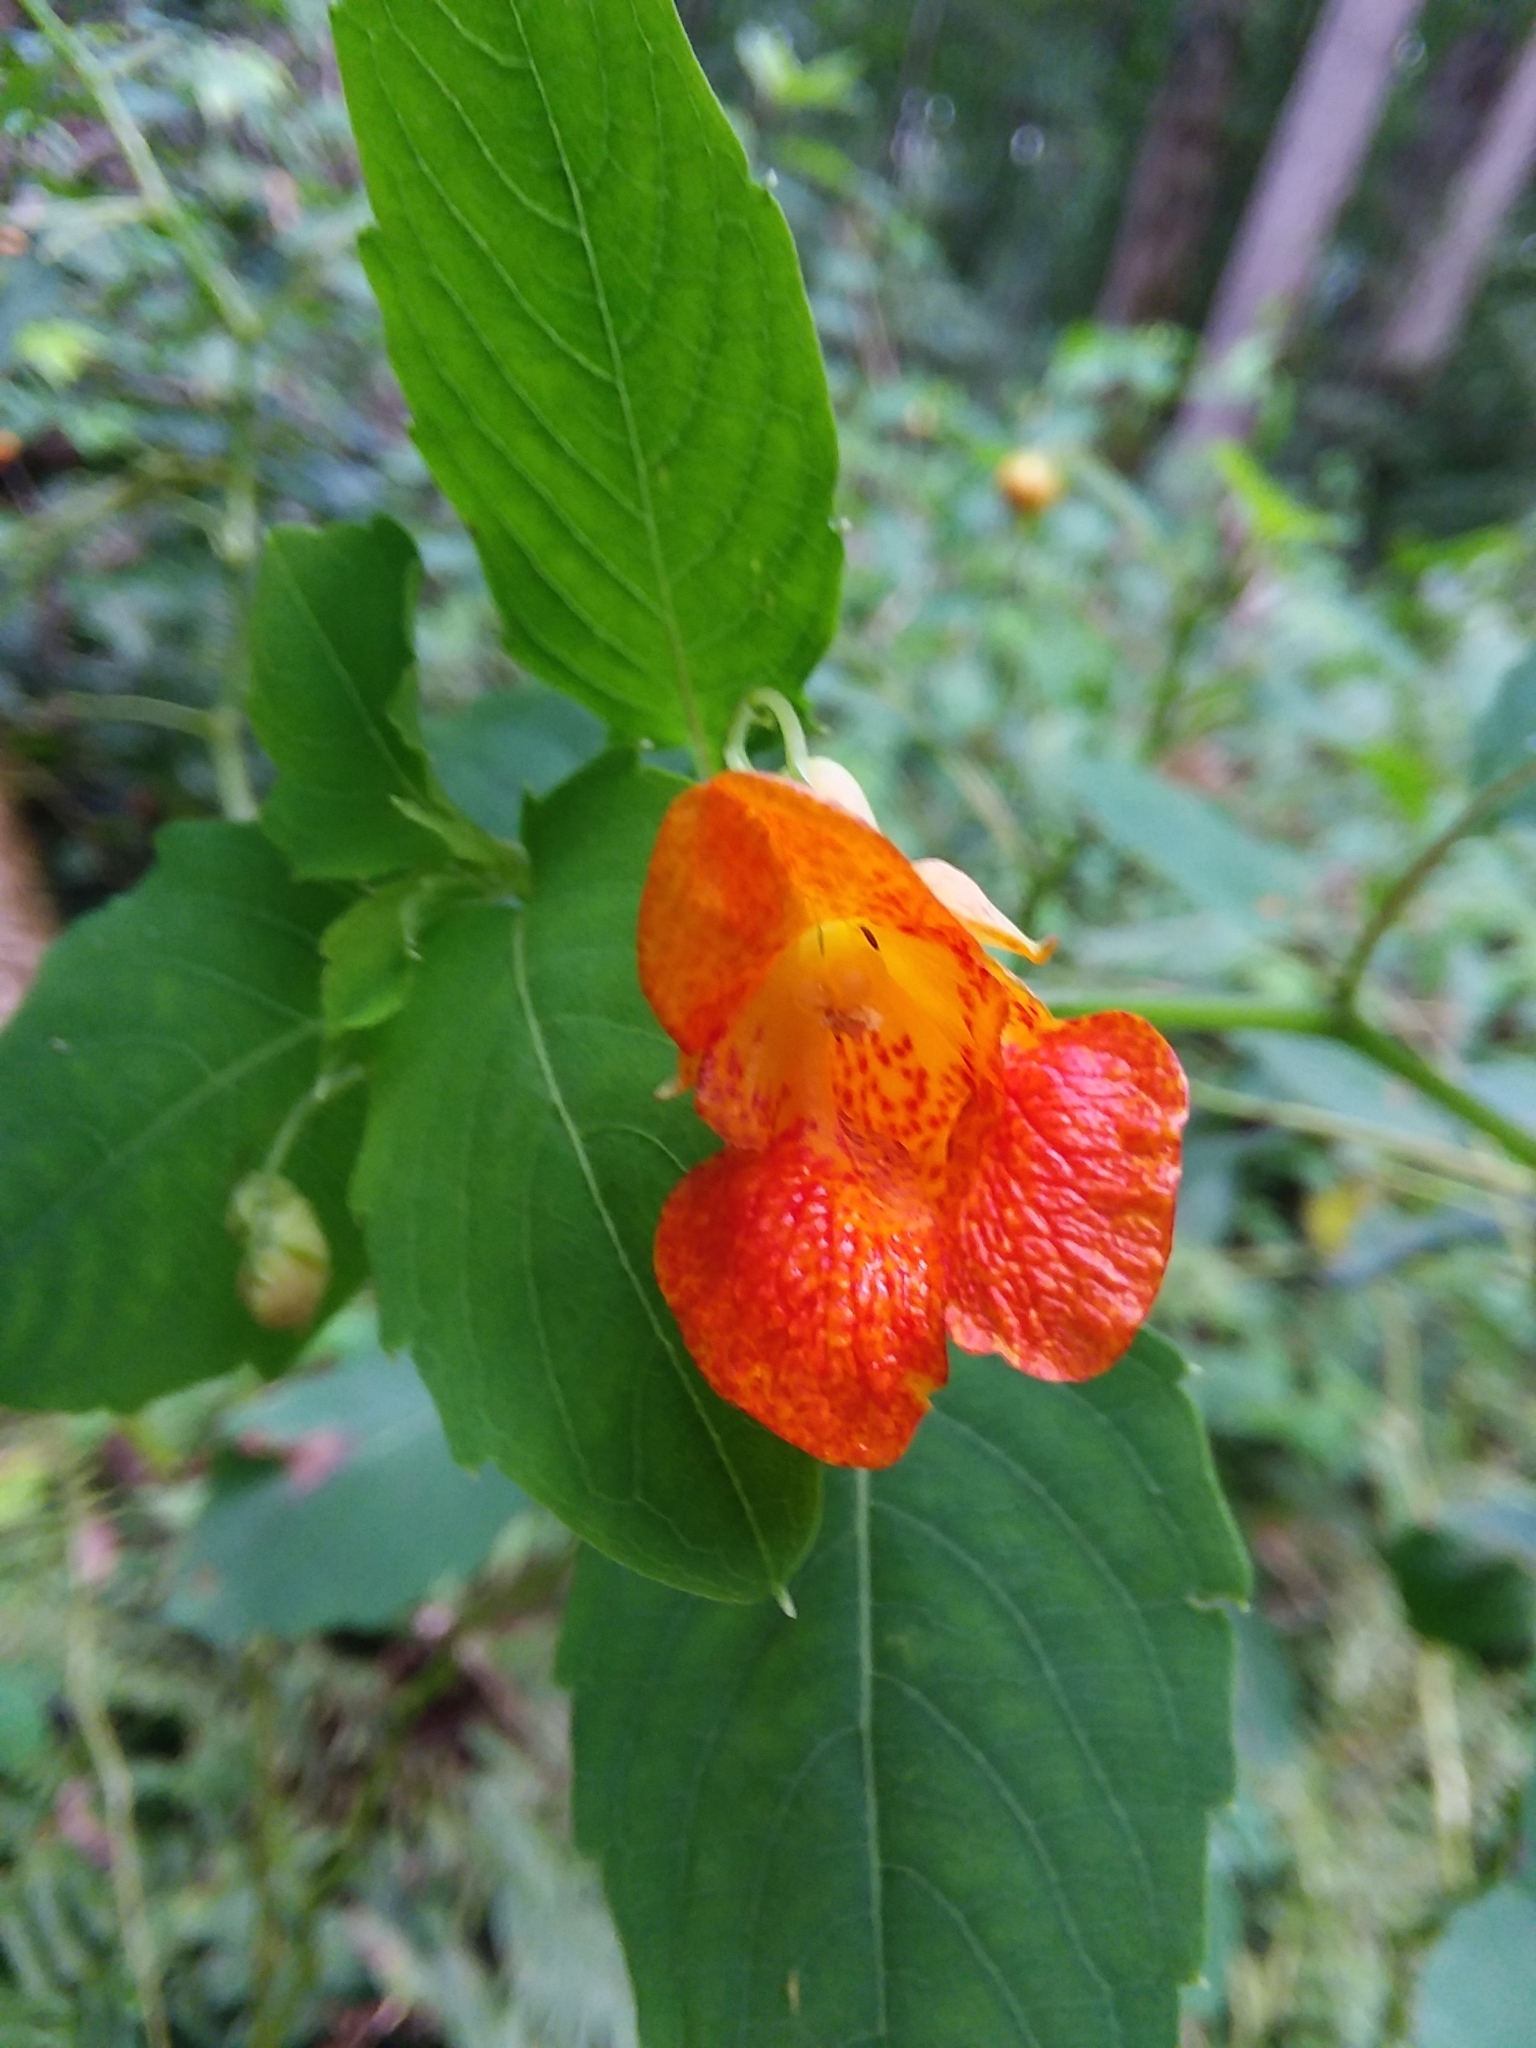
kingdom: Plantae
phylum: Tracheophyta
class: Magnoliopsida
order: Ericales
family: Balsaminaceae
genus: Impatiens
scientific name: Impatiens capensis
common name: Orange balsam
